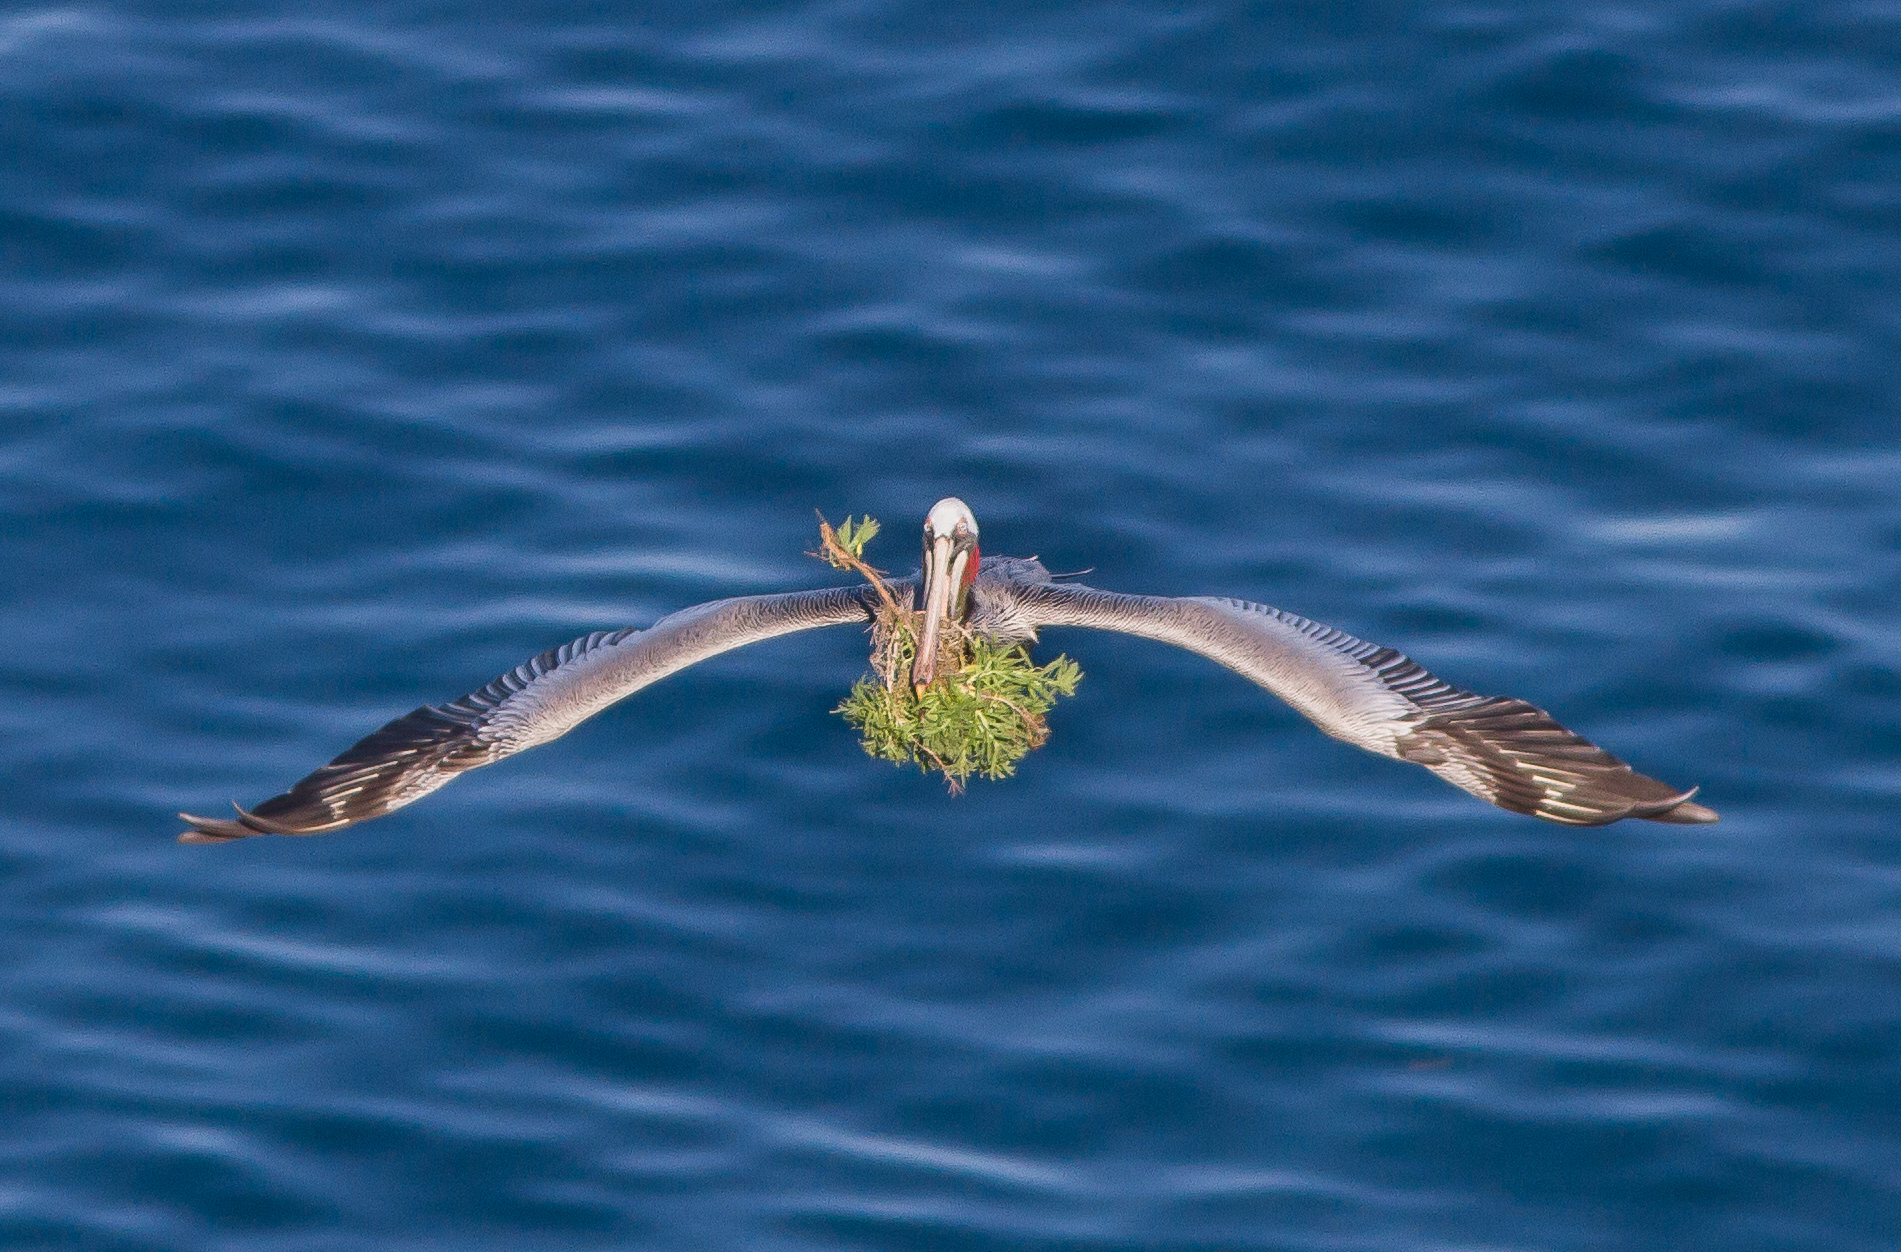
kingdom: Animalia
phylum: Chordata
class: Aves
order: Pelecaniformes
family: Pelecanidae
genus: Pelecanus
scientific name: Pelecanus occidentalis
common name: Brown pelican
